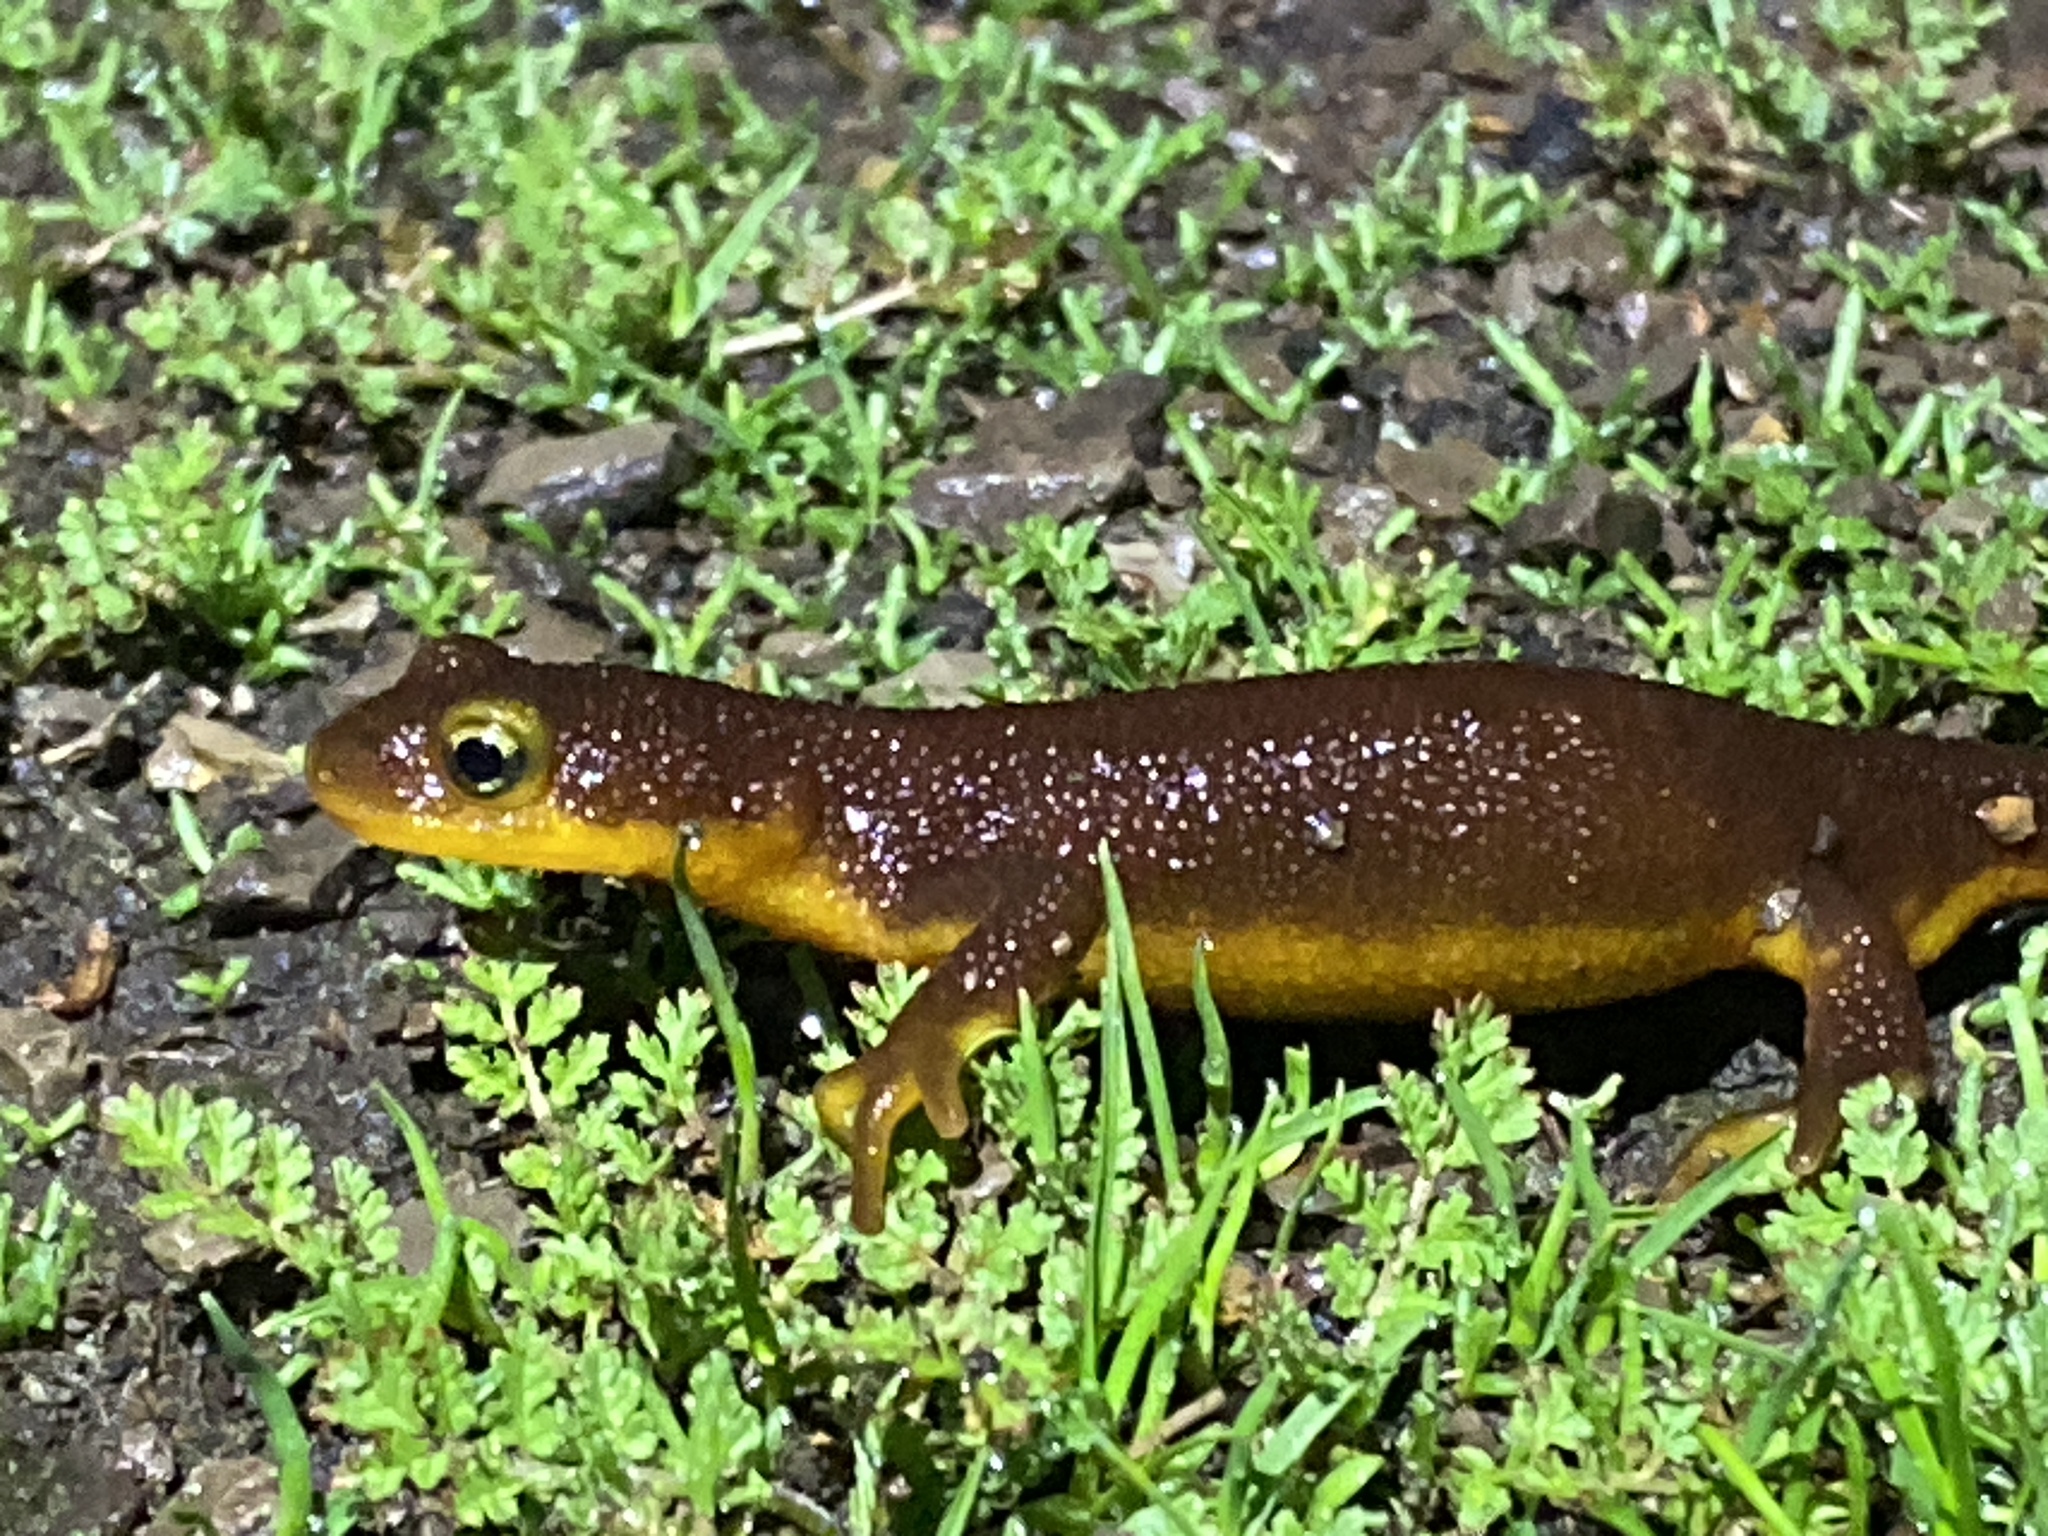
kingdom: Animalia
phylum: Chordata
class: Amphibia
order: Caudata
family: Salamandridae
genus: Taricha
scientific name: Taricha torosa
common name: California newt
